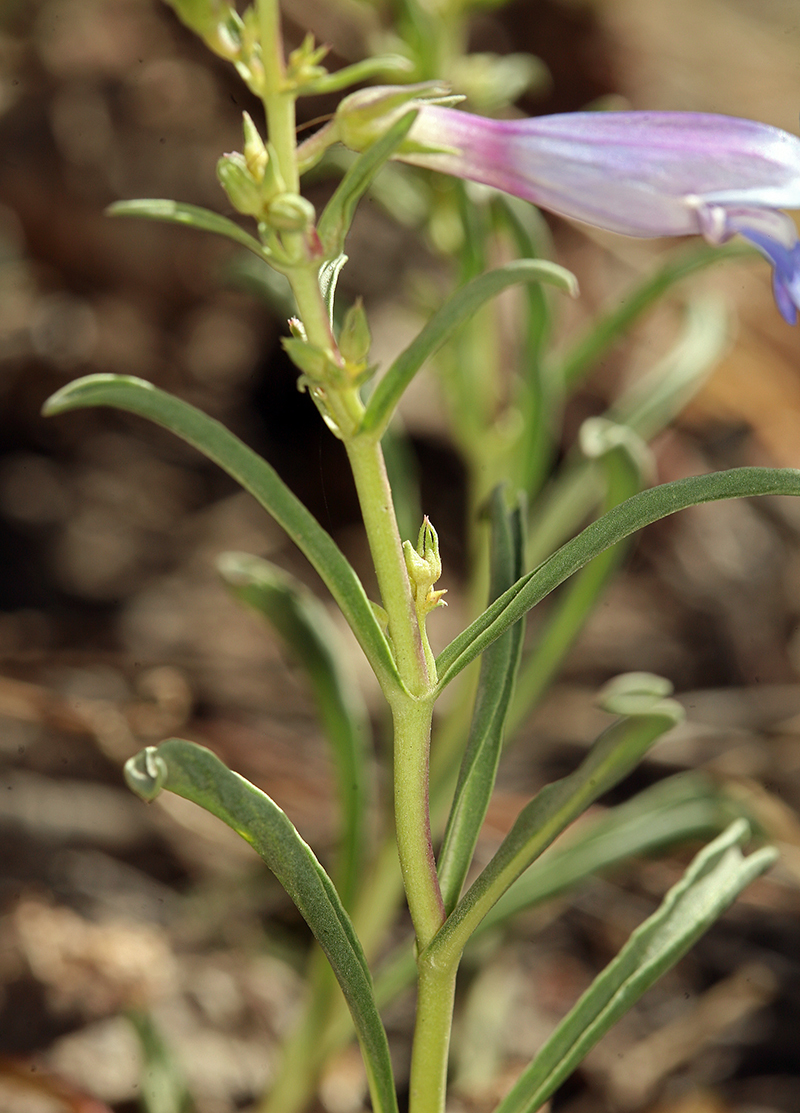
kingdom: Plantae
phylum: Tracheophyta
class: Magnoliopsida
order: Lamiales
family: Plantaginaceae
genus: Penstemon
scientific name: Penstemon speciosus
